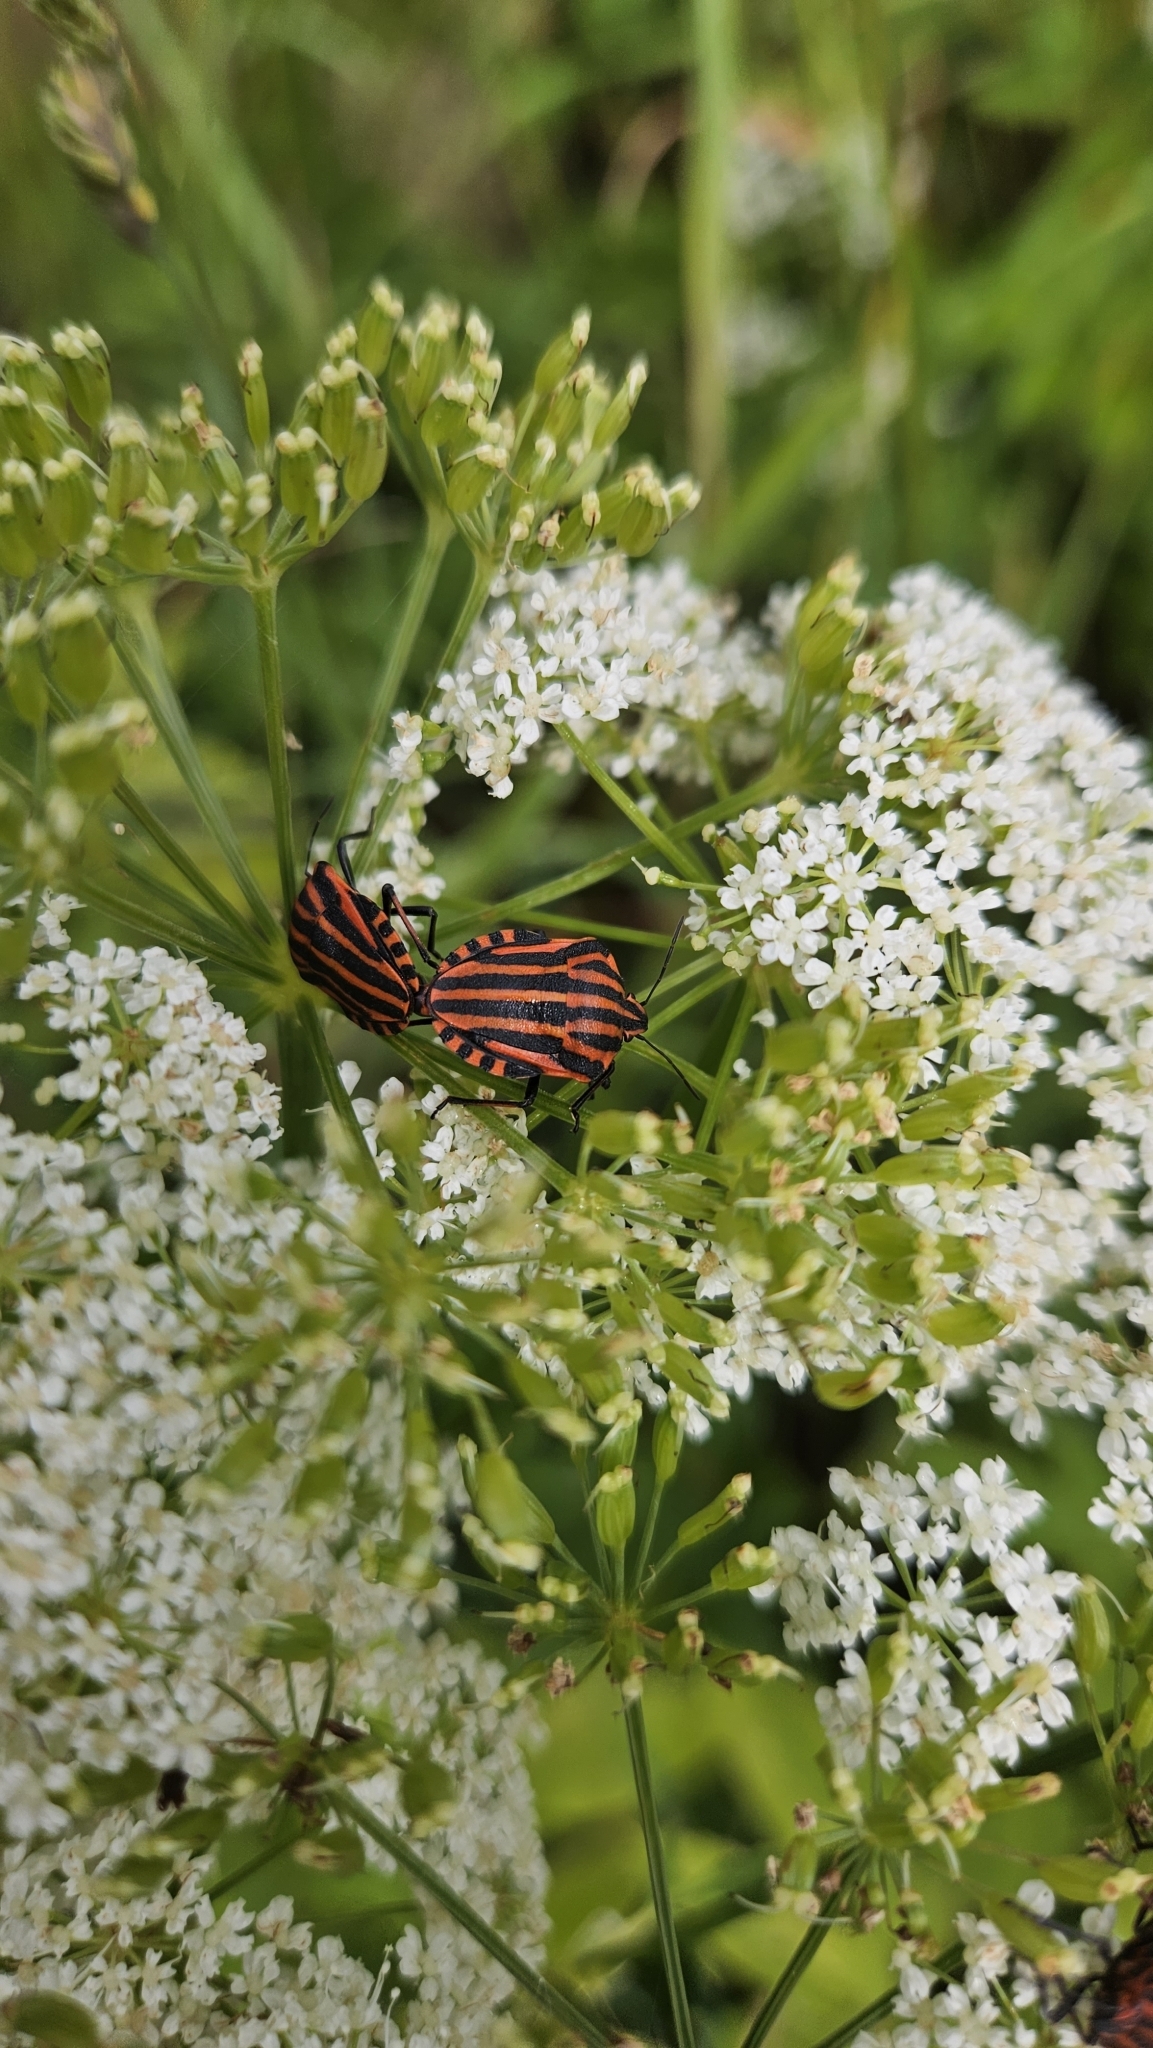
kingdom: Animalia
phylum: Arthropoda
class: Insecta
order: Hemiptera
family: Pentatomidae
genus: Graphosoma
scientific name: Graphosoma italicum
